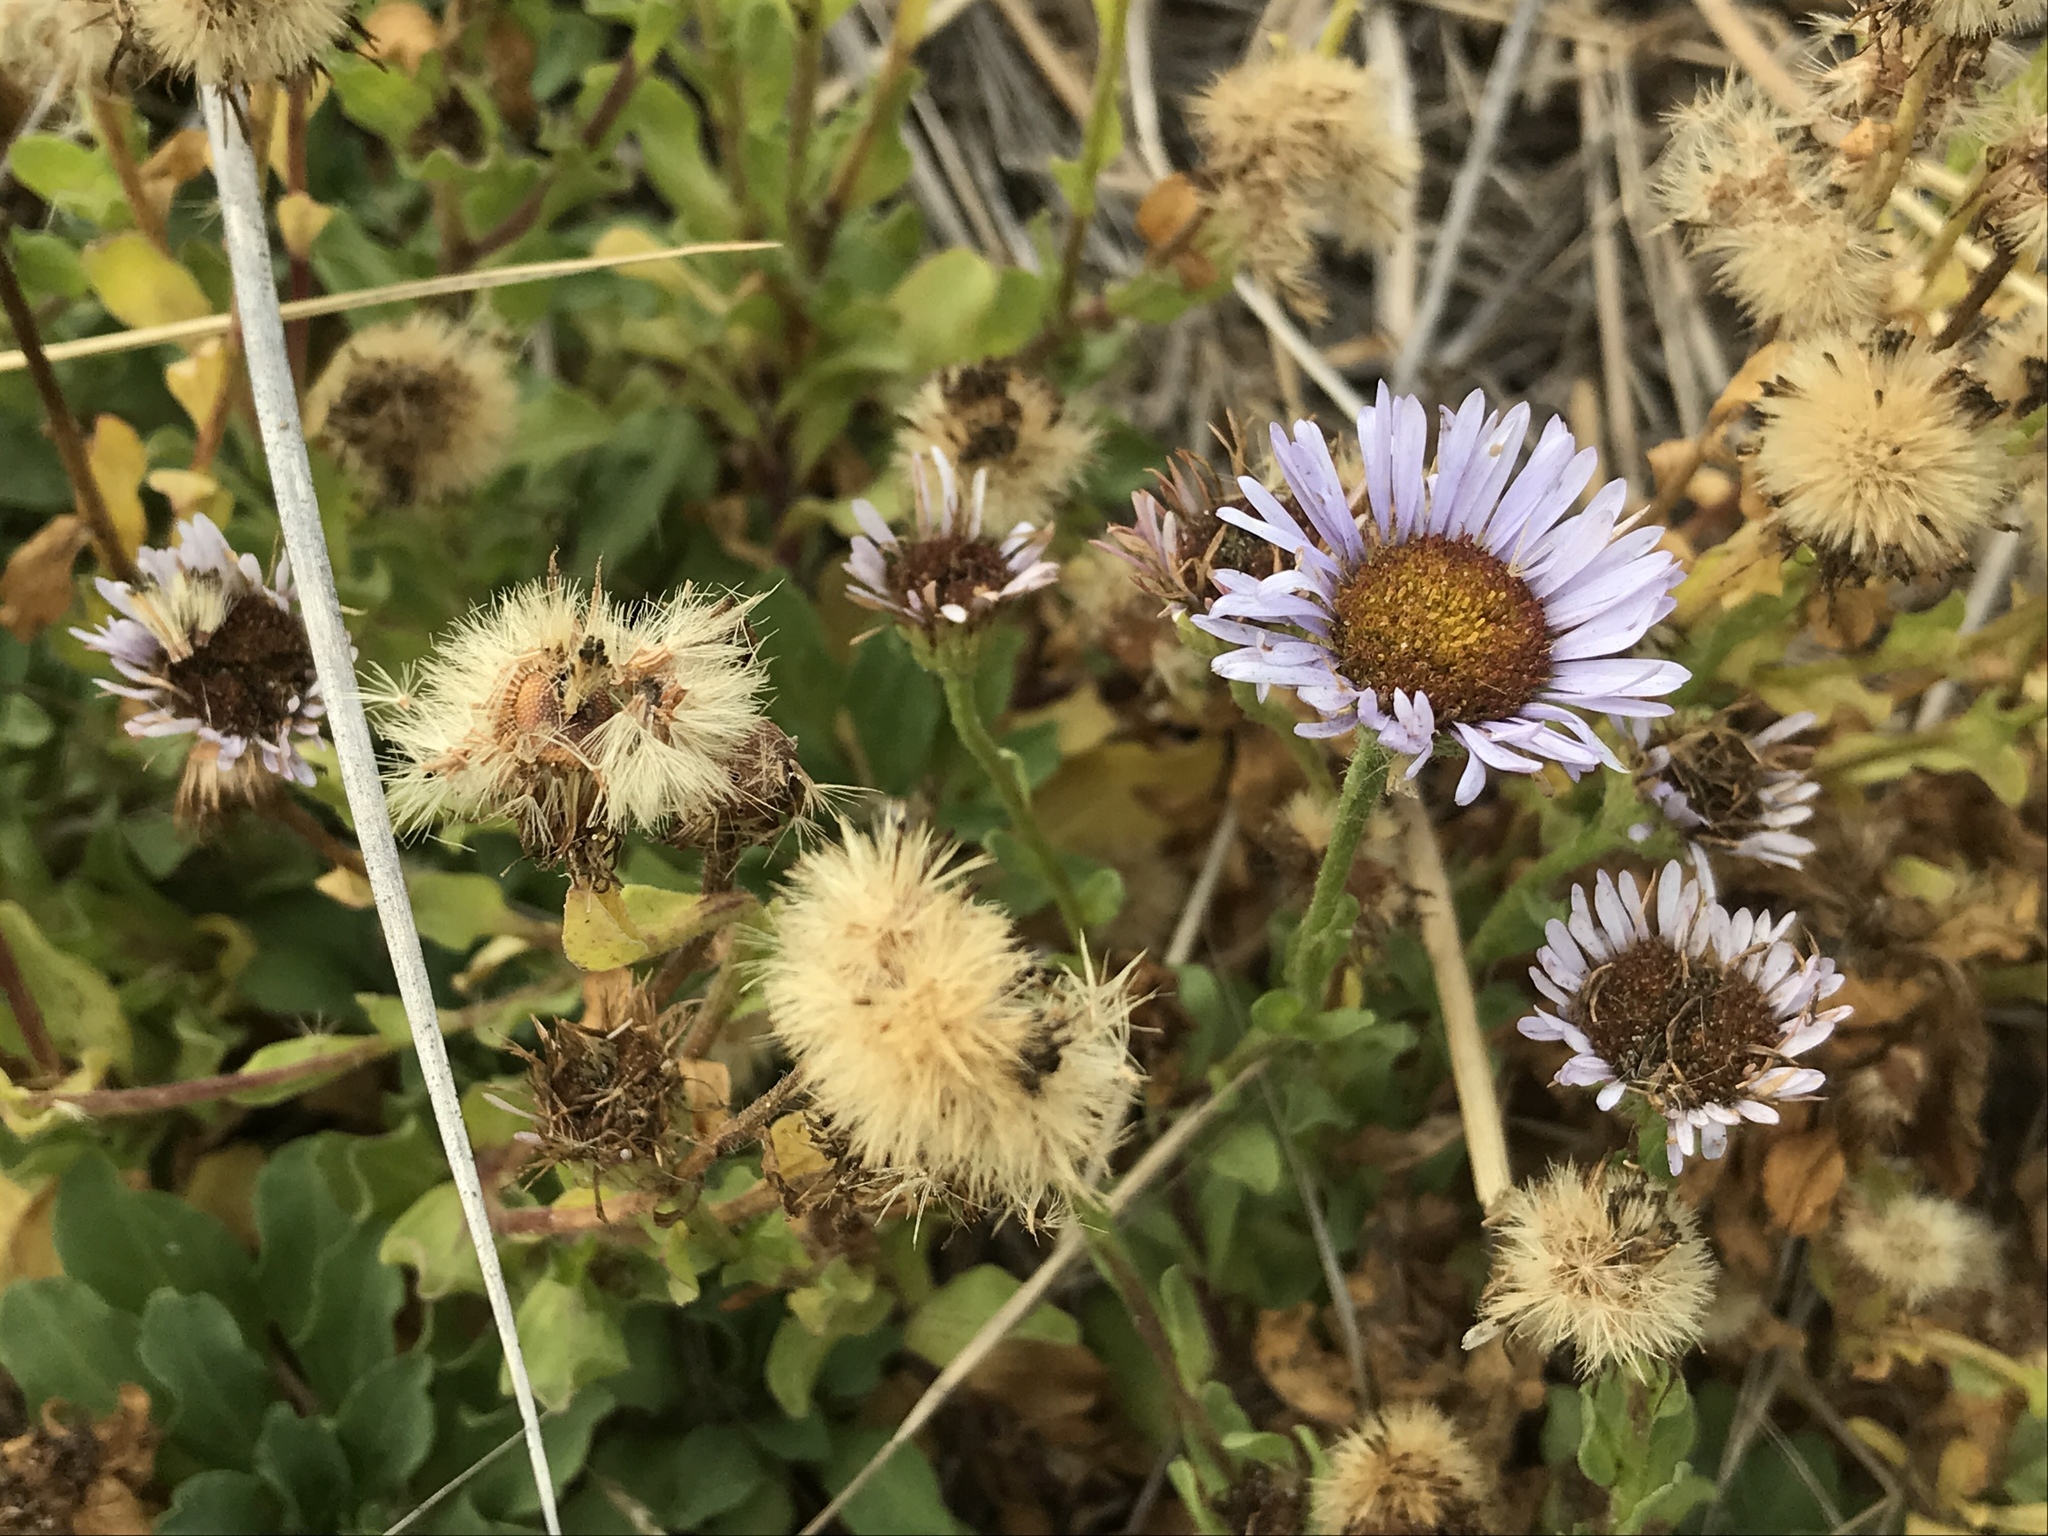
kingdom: Plantae
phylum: Tracheophyta
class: Magnoliopsida
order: Asterales
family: Asteraceae
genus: Erigeron
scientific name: Erigeron glaucus
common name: Seaside daisy
